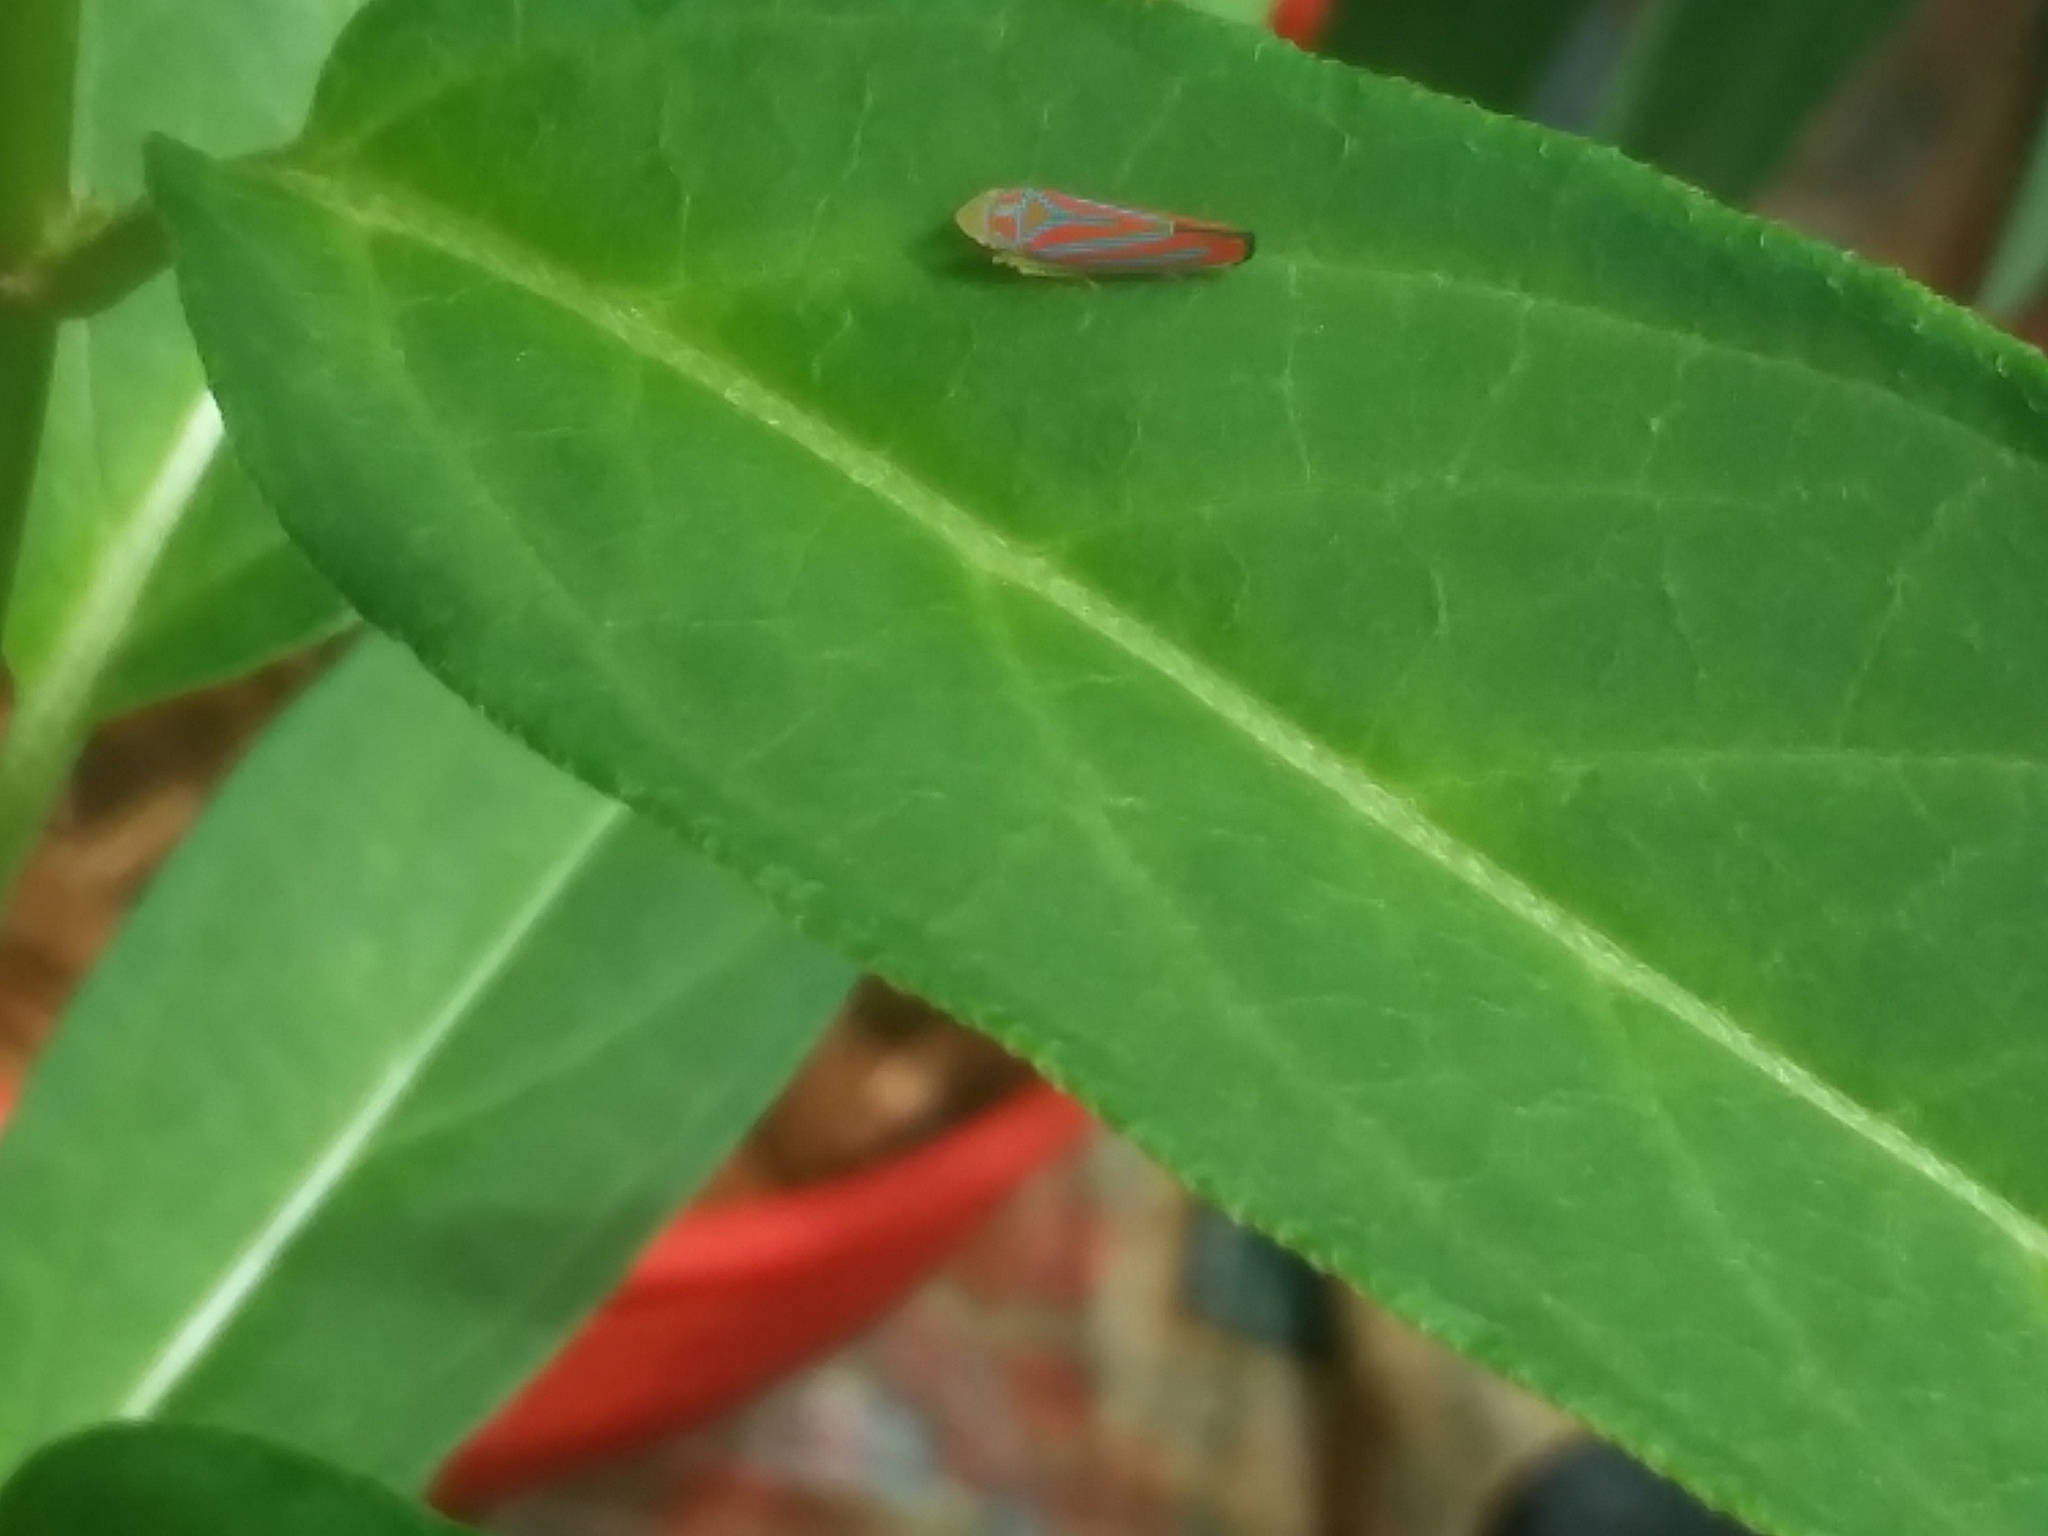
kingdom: Animalia
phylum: Arthropoda
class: Insecta
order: Hemiptera
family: Cicadellidae
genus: Graphocephala
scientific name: Graphocephala coccinea
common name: Candy-striped leafhopper
